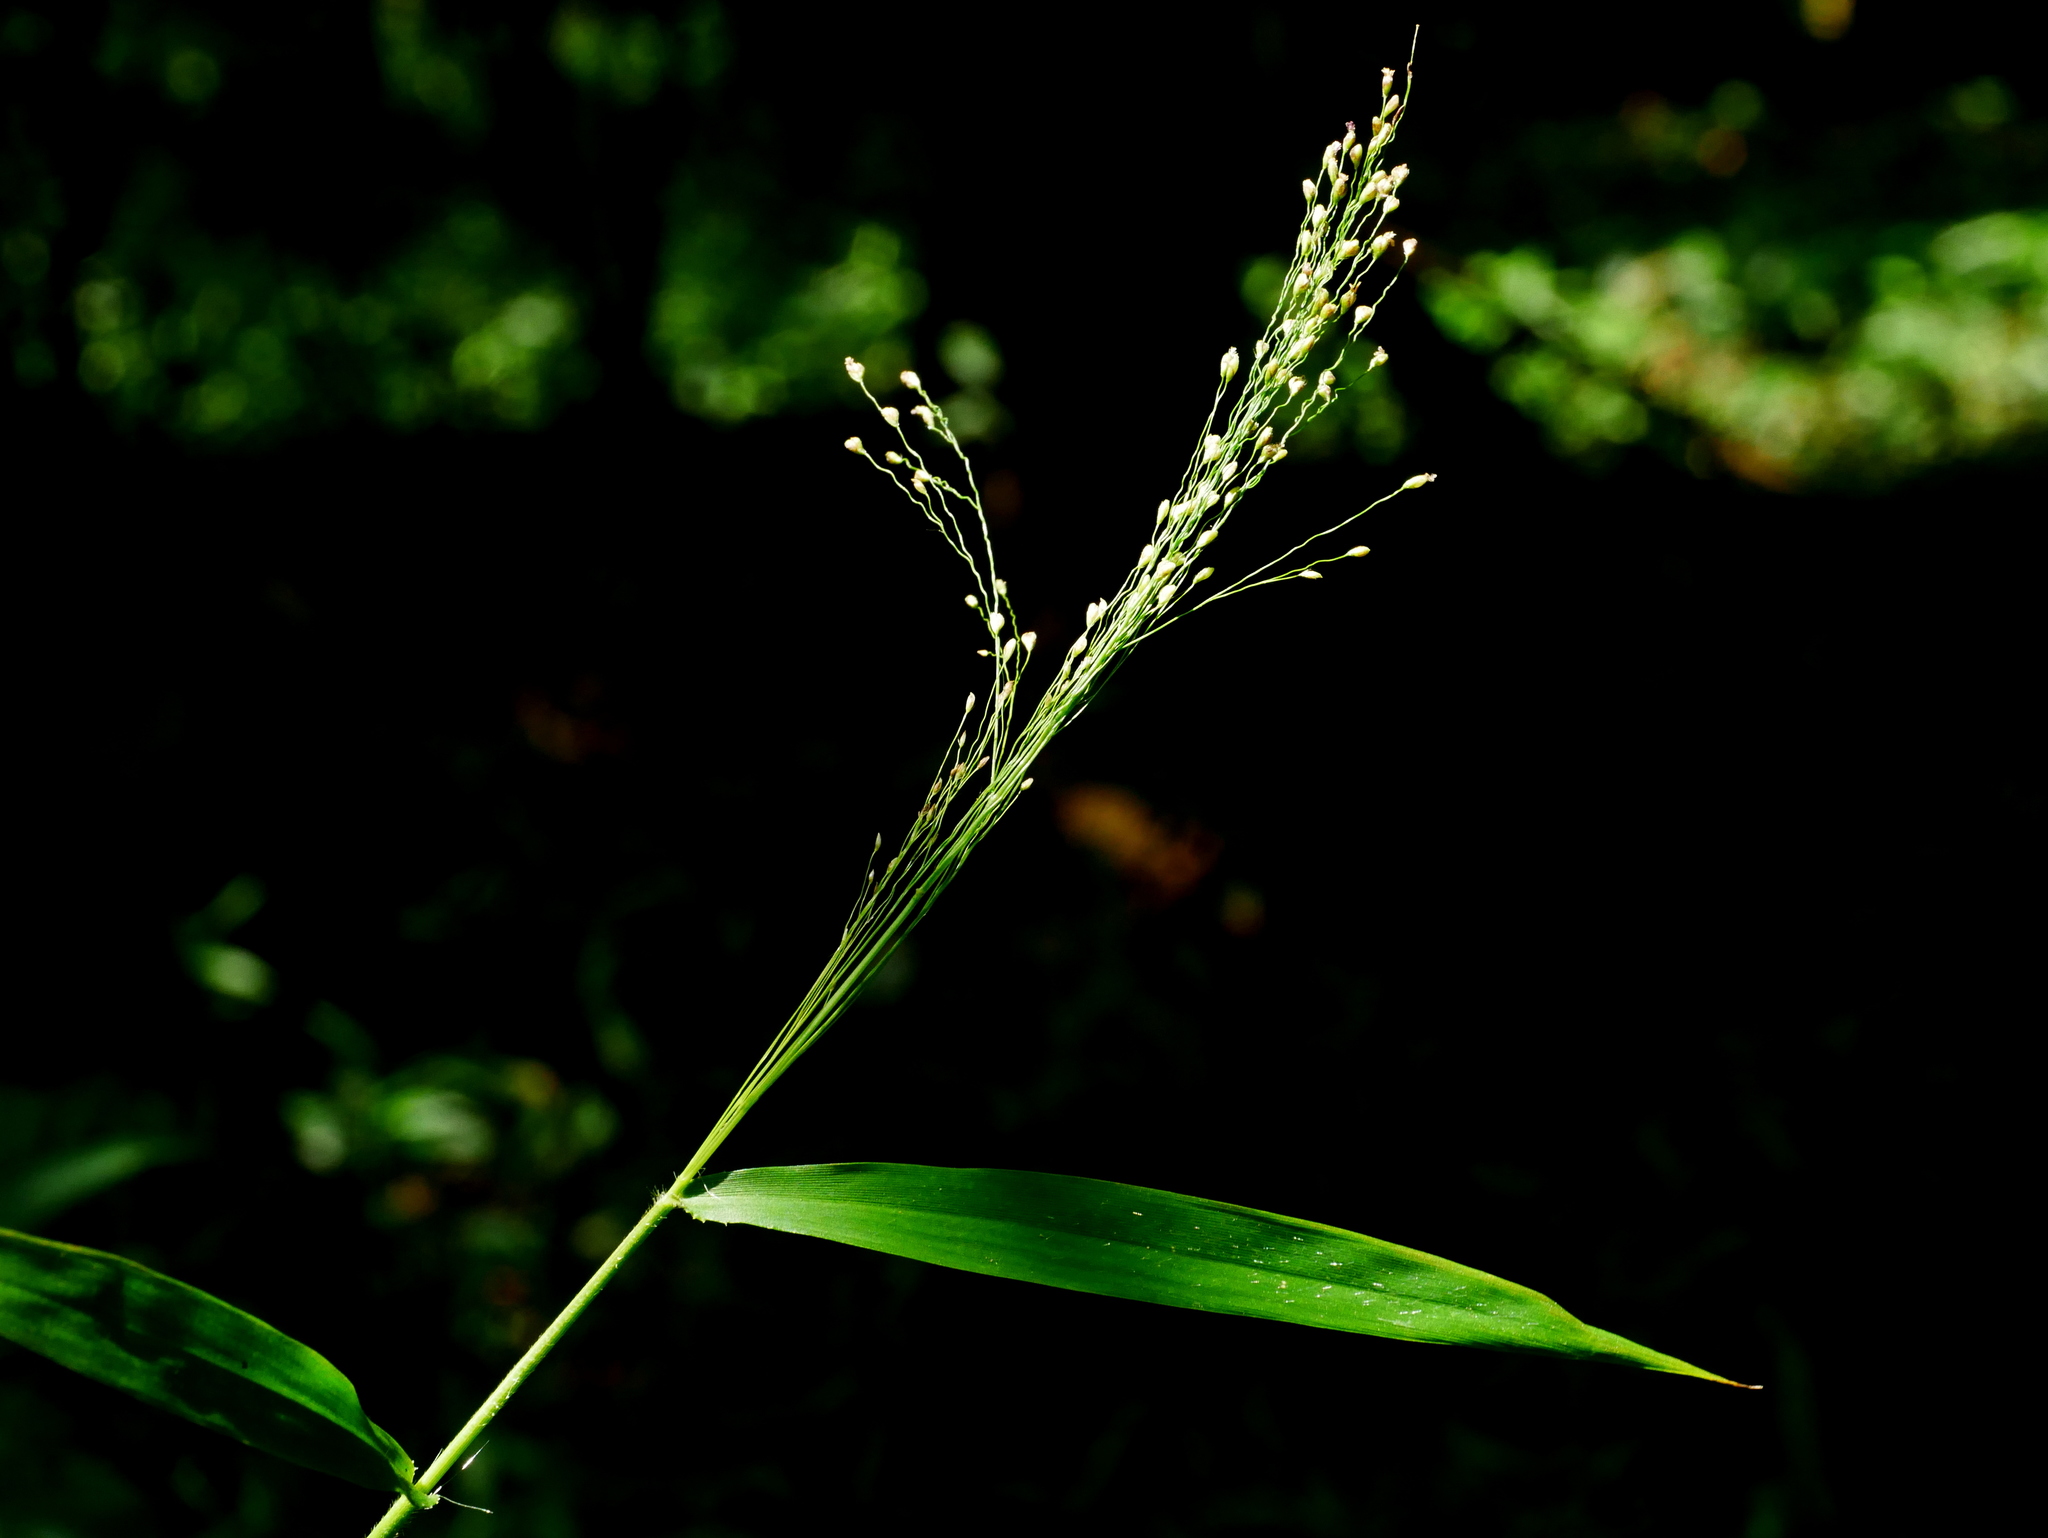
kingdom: Plantae
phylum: Tracheophyta
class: Liliopsida
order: Poales
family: Poaceae
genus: Cyrtococcum
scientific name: Cyrtococcum patens
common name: Broad-leaved bowgrass
